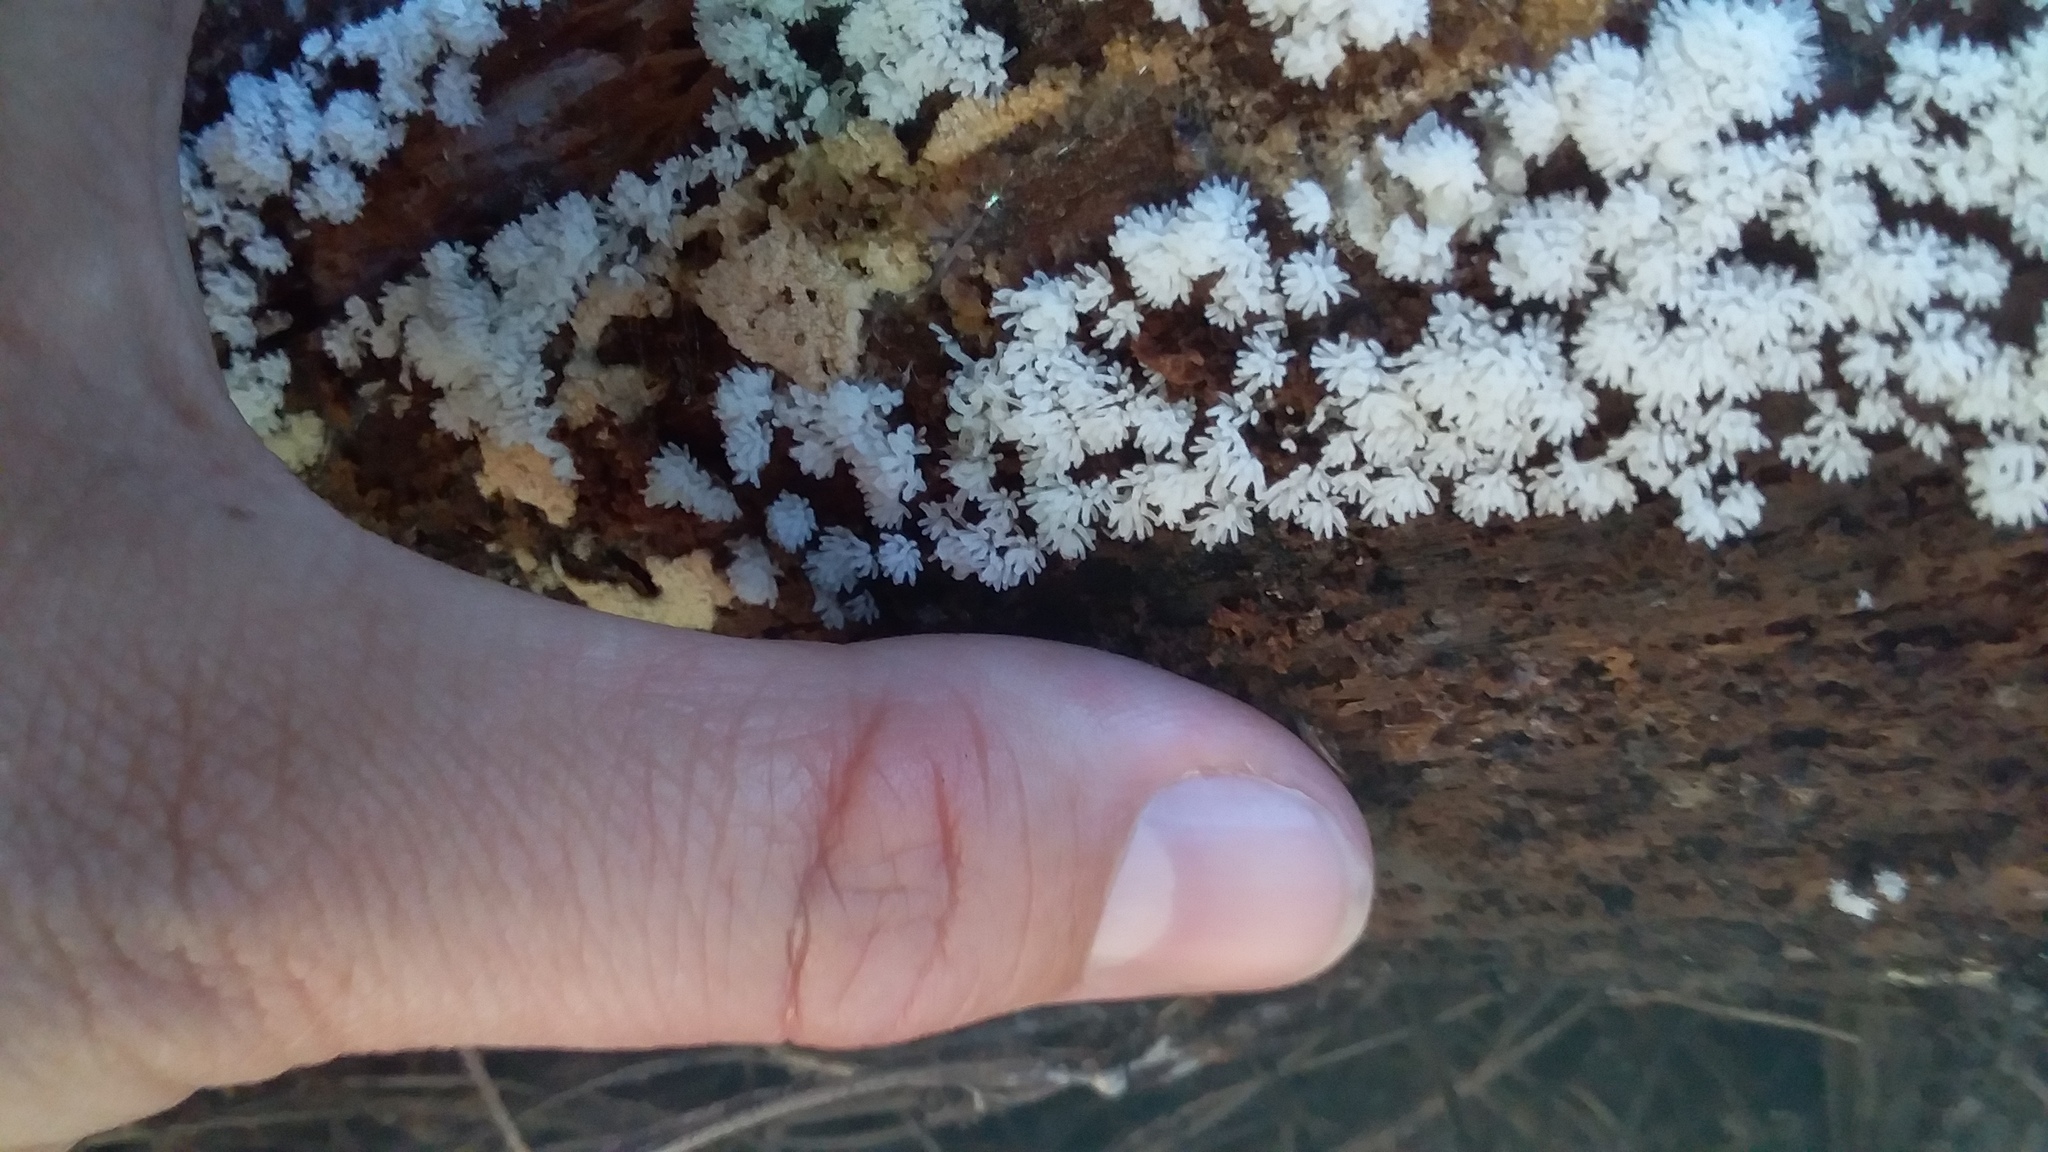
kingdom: Protozoa
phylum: Mycetozoa
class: Protosteliomycetes
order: Ceratiomyxales
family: Ceratiomyxaceae
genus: Ceratiomyxa
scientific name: Ceratiomyxa fruticulosa
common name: Honeycomb coral slime mold
